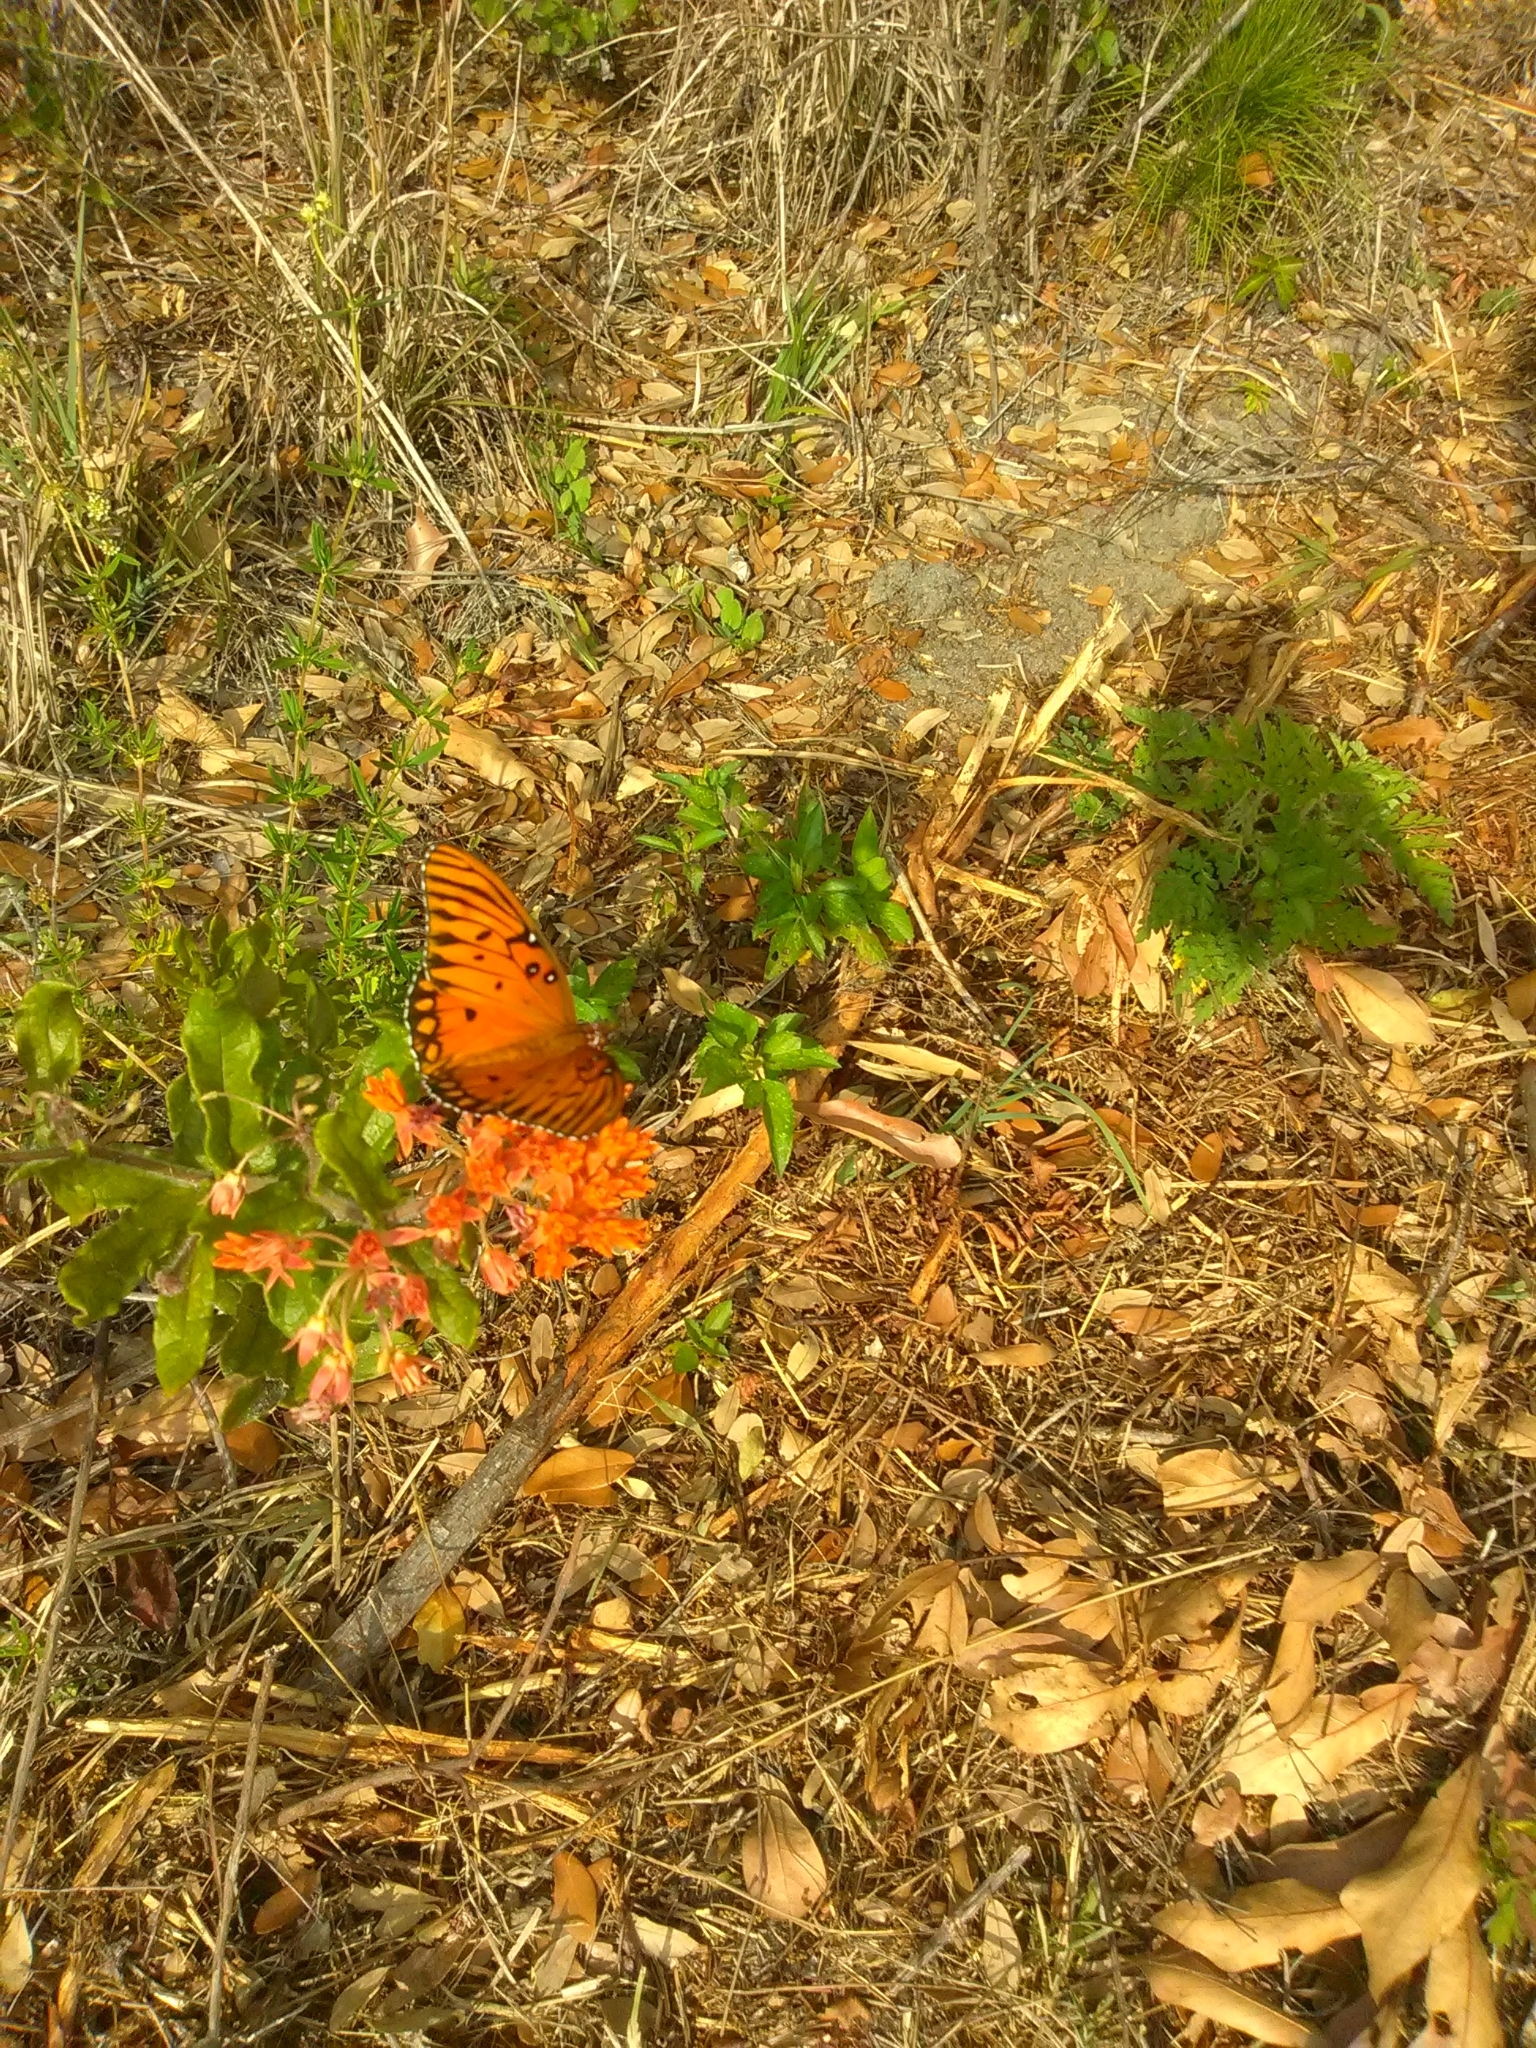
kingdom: Animalia
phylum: Arthropoda
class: Insecta
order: Lepidoptera
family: Nymphalidae
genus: Dione
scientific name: Dione vanillae
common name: Gulf fritillary
